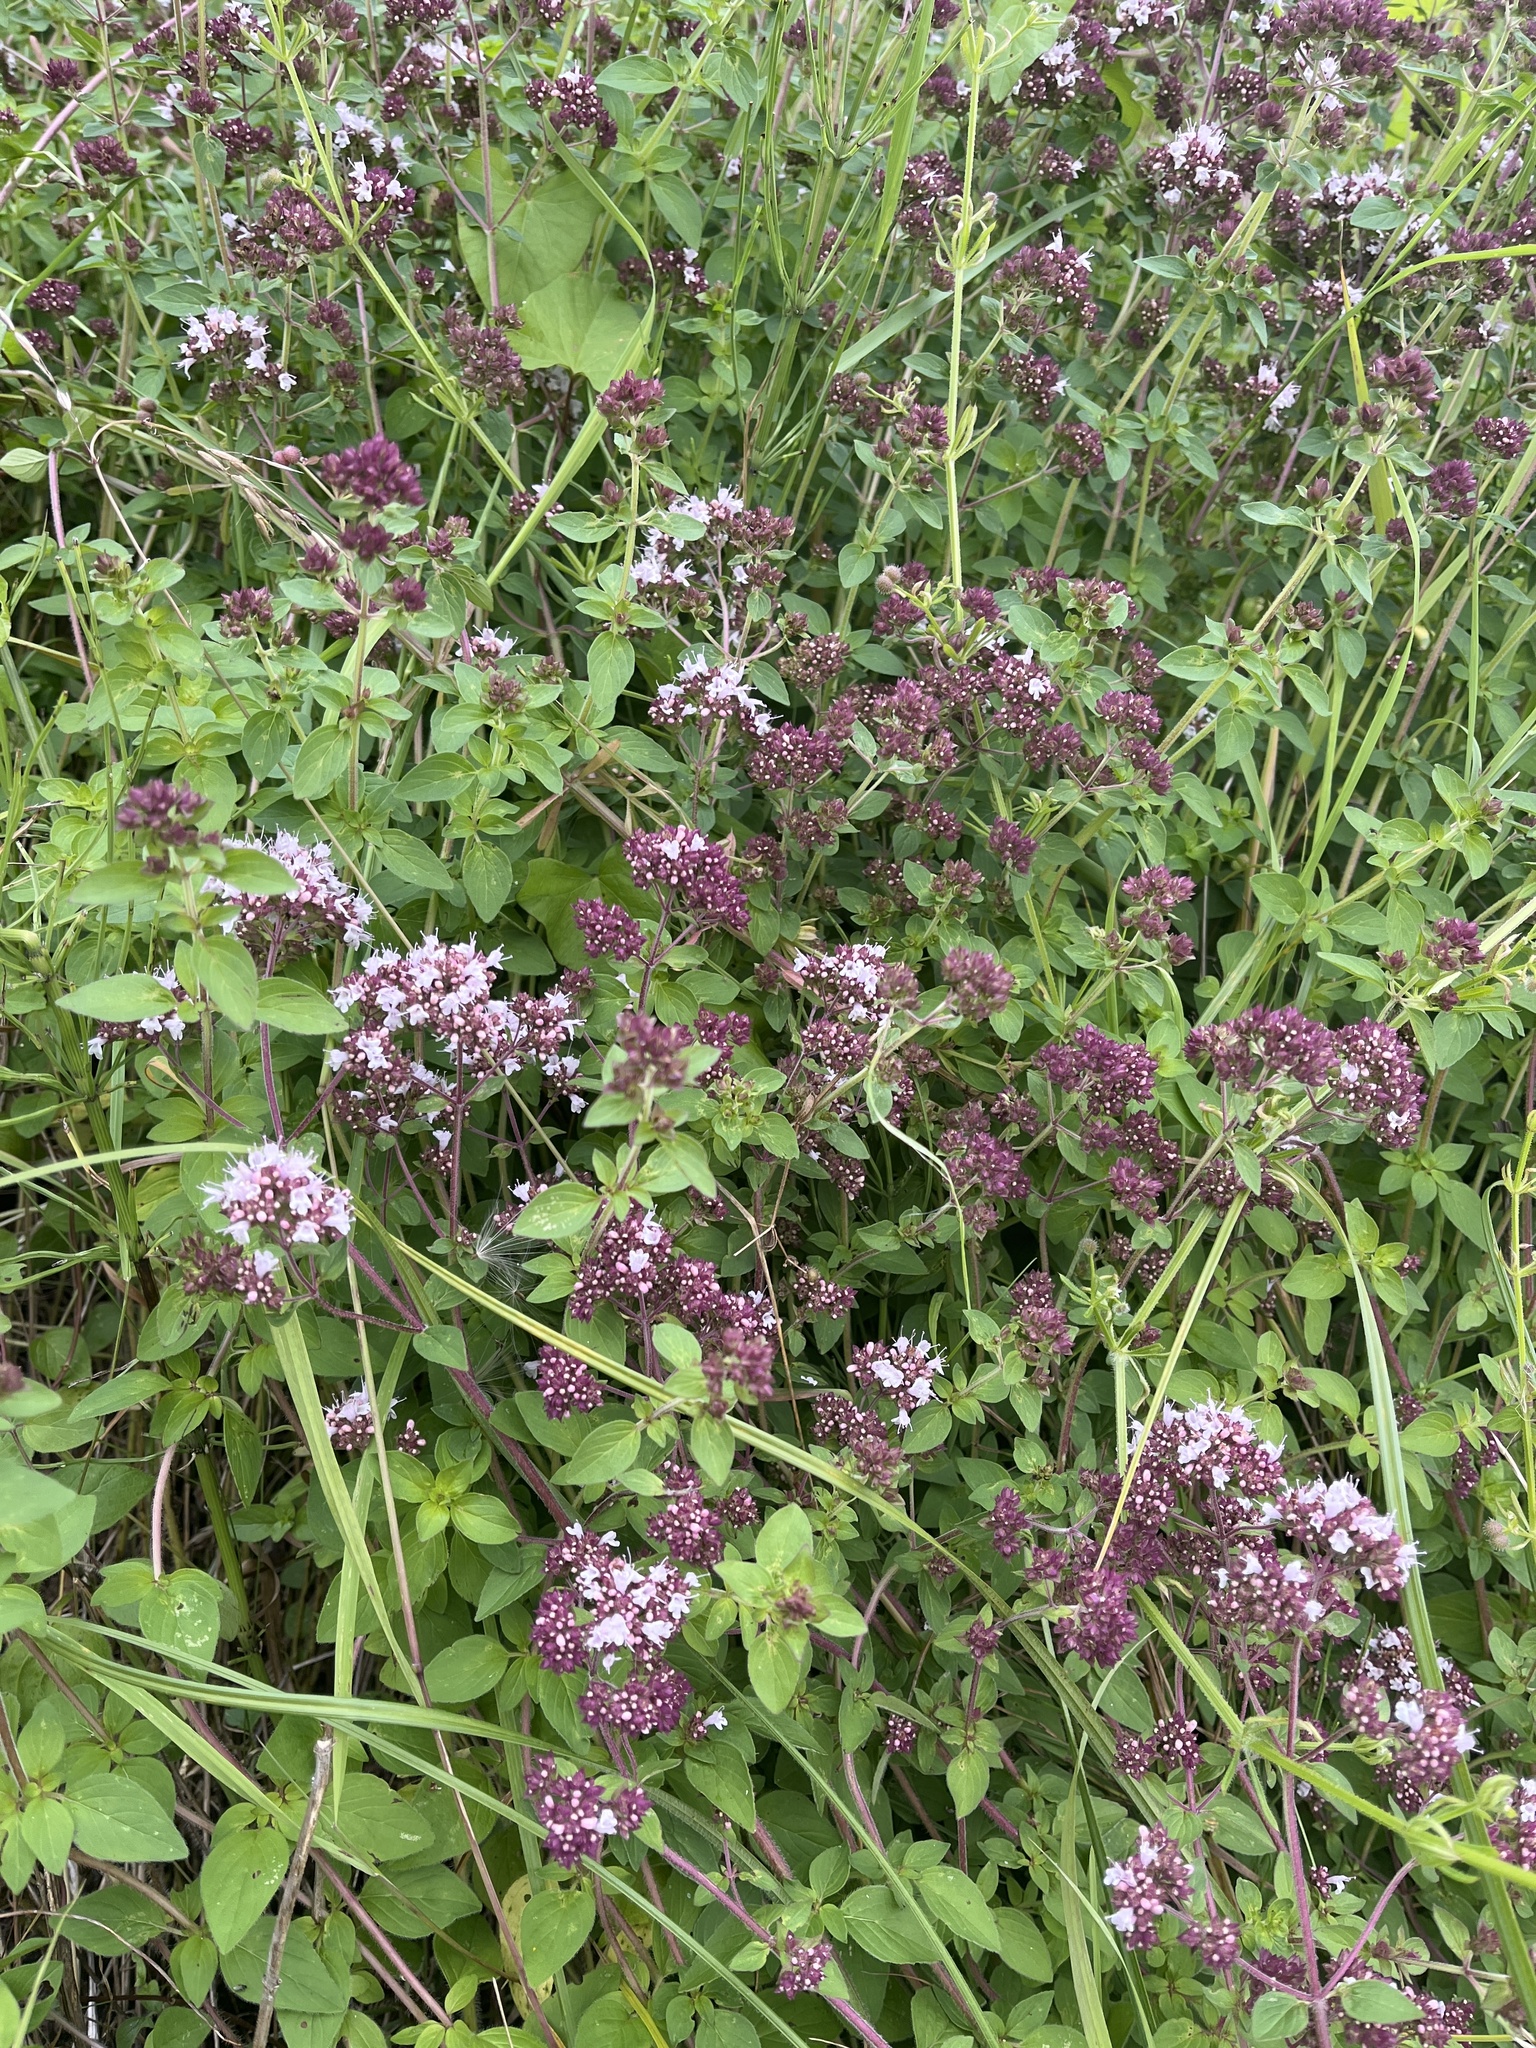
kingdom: Plantae
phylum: Tracheophyta
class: Magnoliopsida
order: Lamiales
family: Lamiaceae
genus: Origanum
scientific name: Origanum vulgare
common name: Wild marjoram
